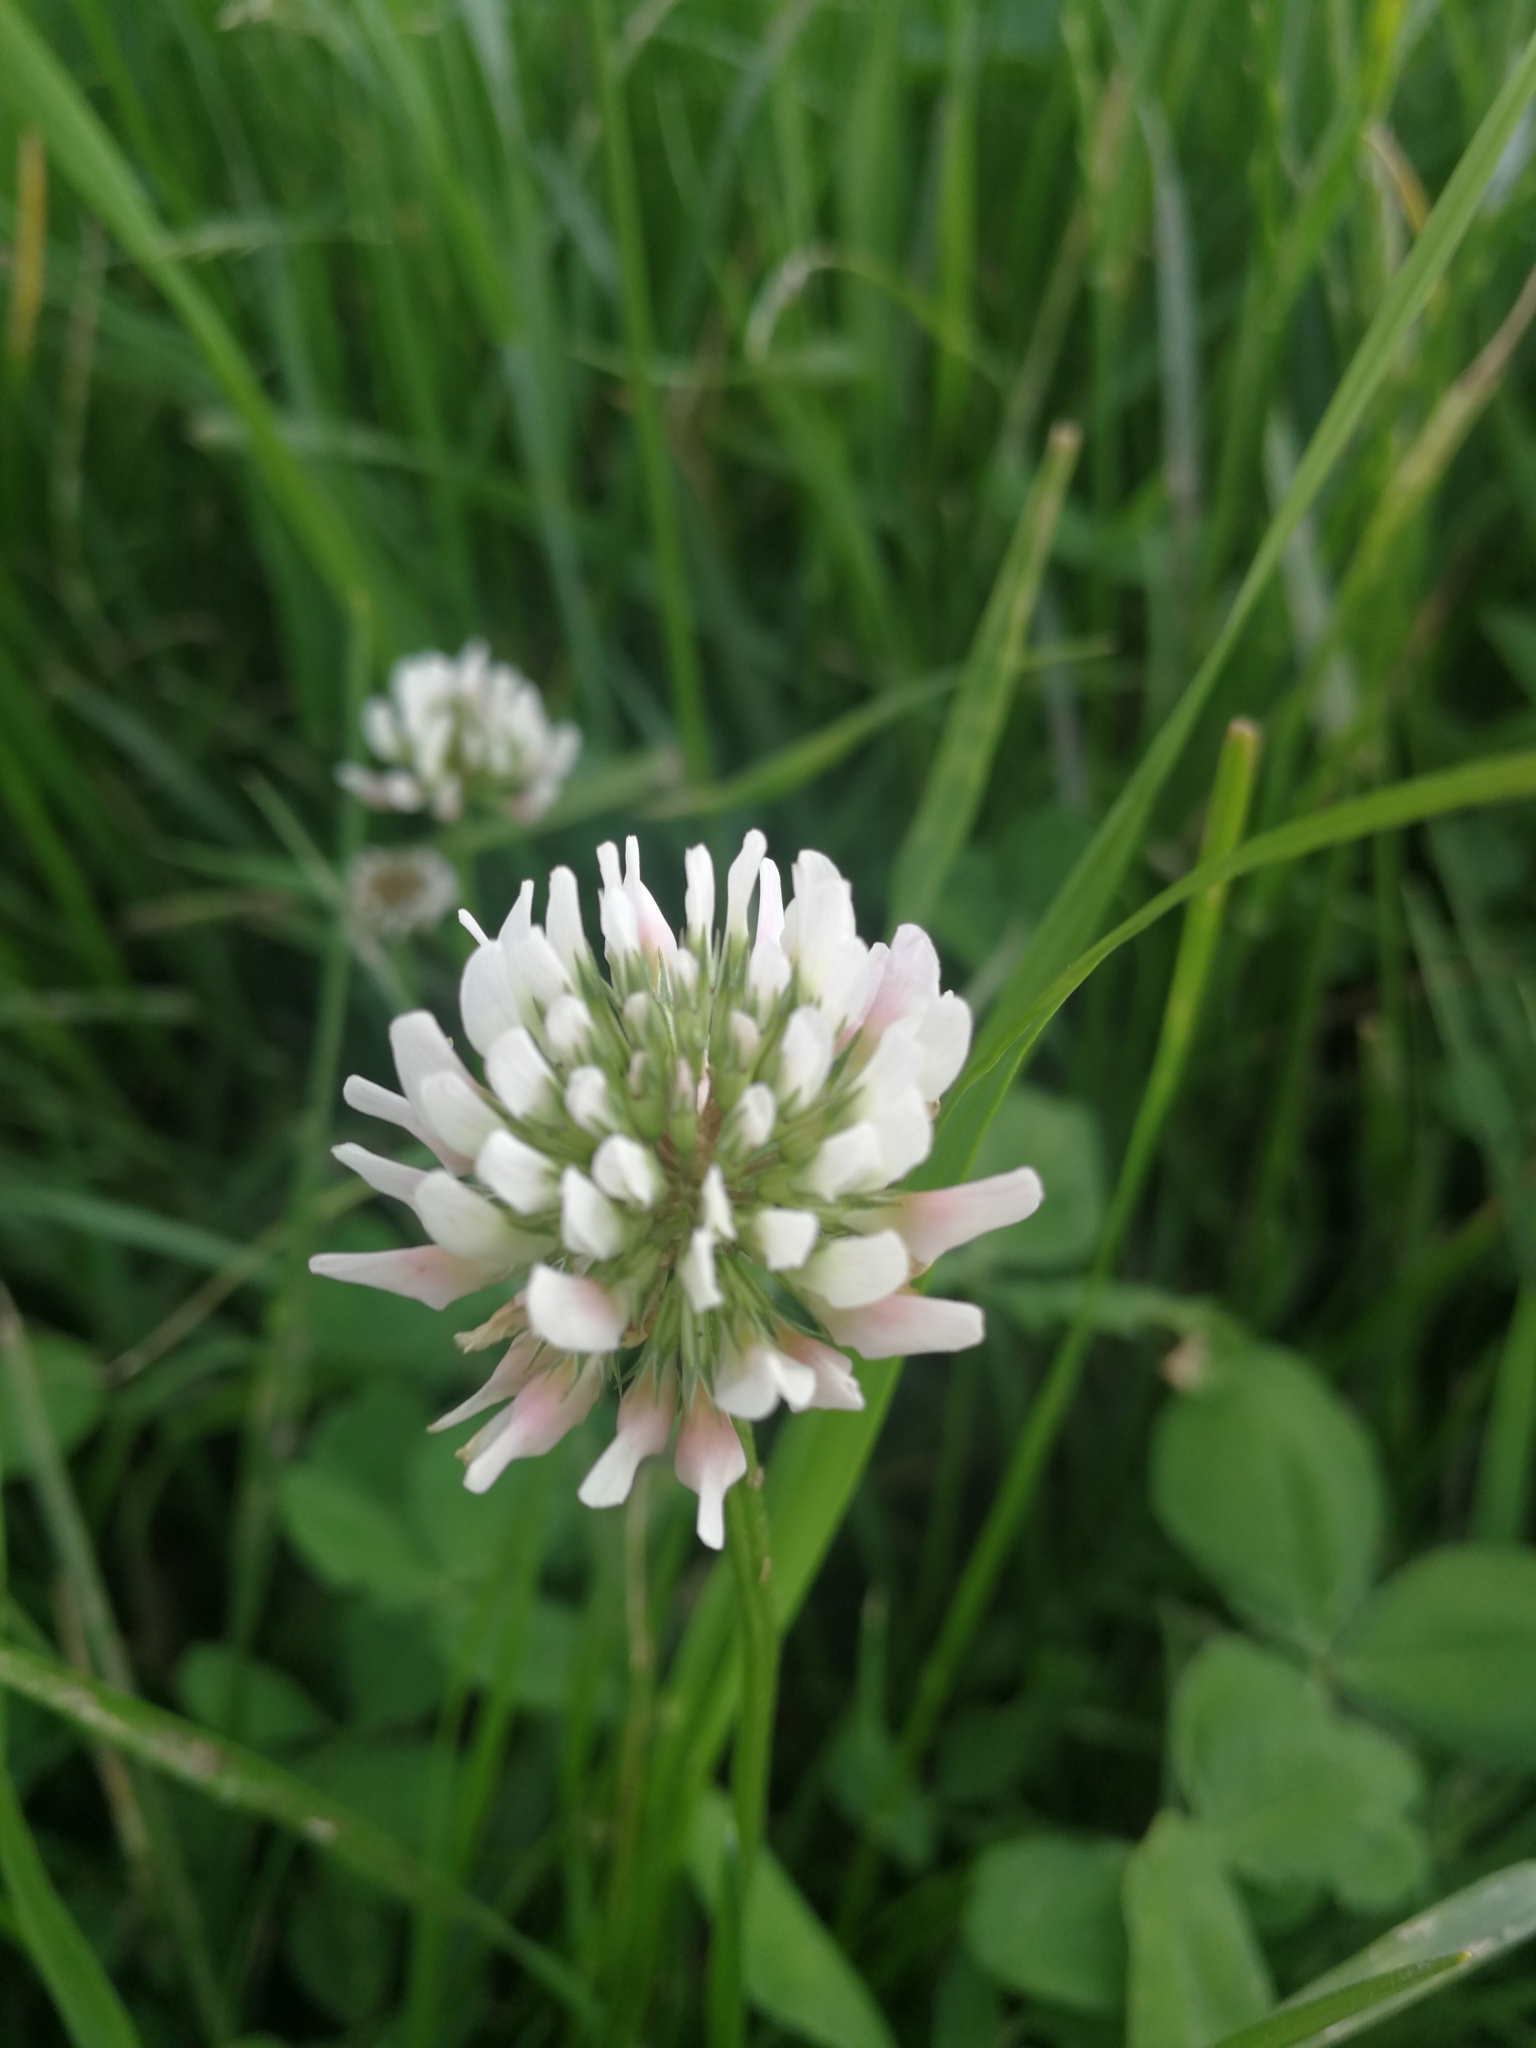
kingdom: Plantae
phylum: Tracheophyta
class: Magnoliopsida
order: Fabales
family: Fabaceae
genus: Trifolium
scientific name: Trifolium repens
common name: White clover
